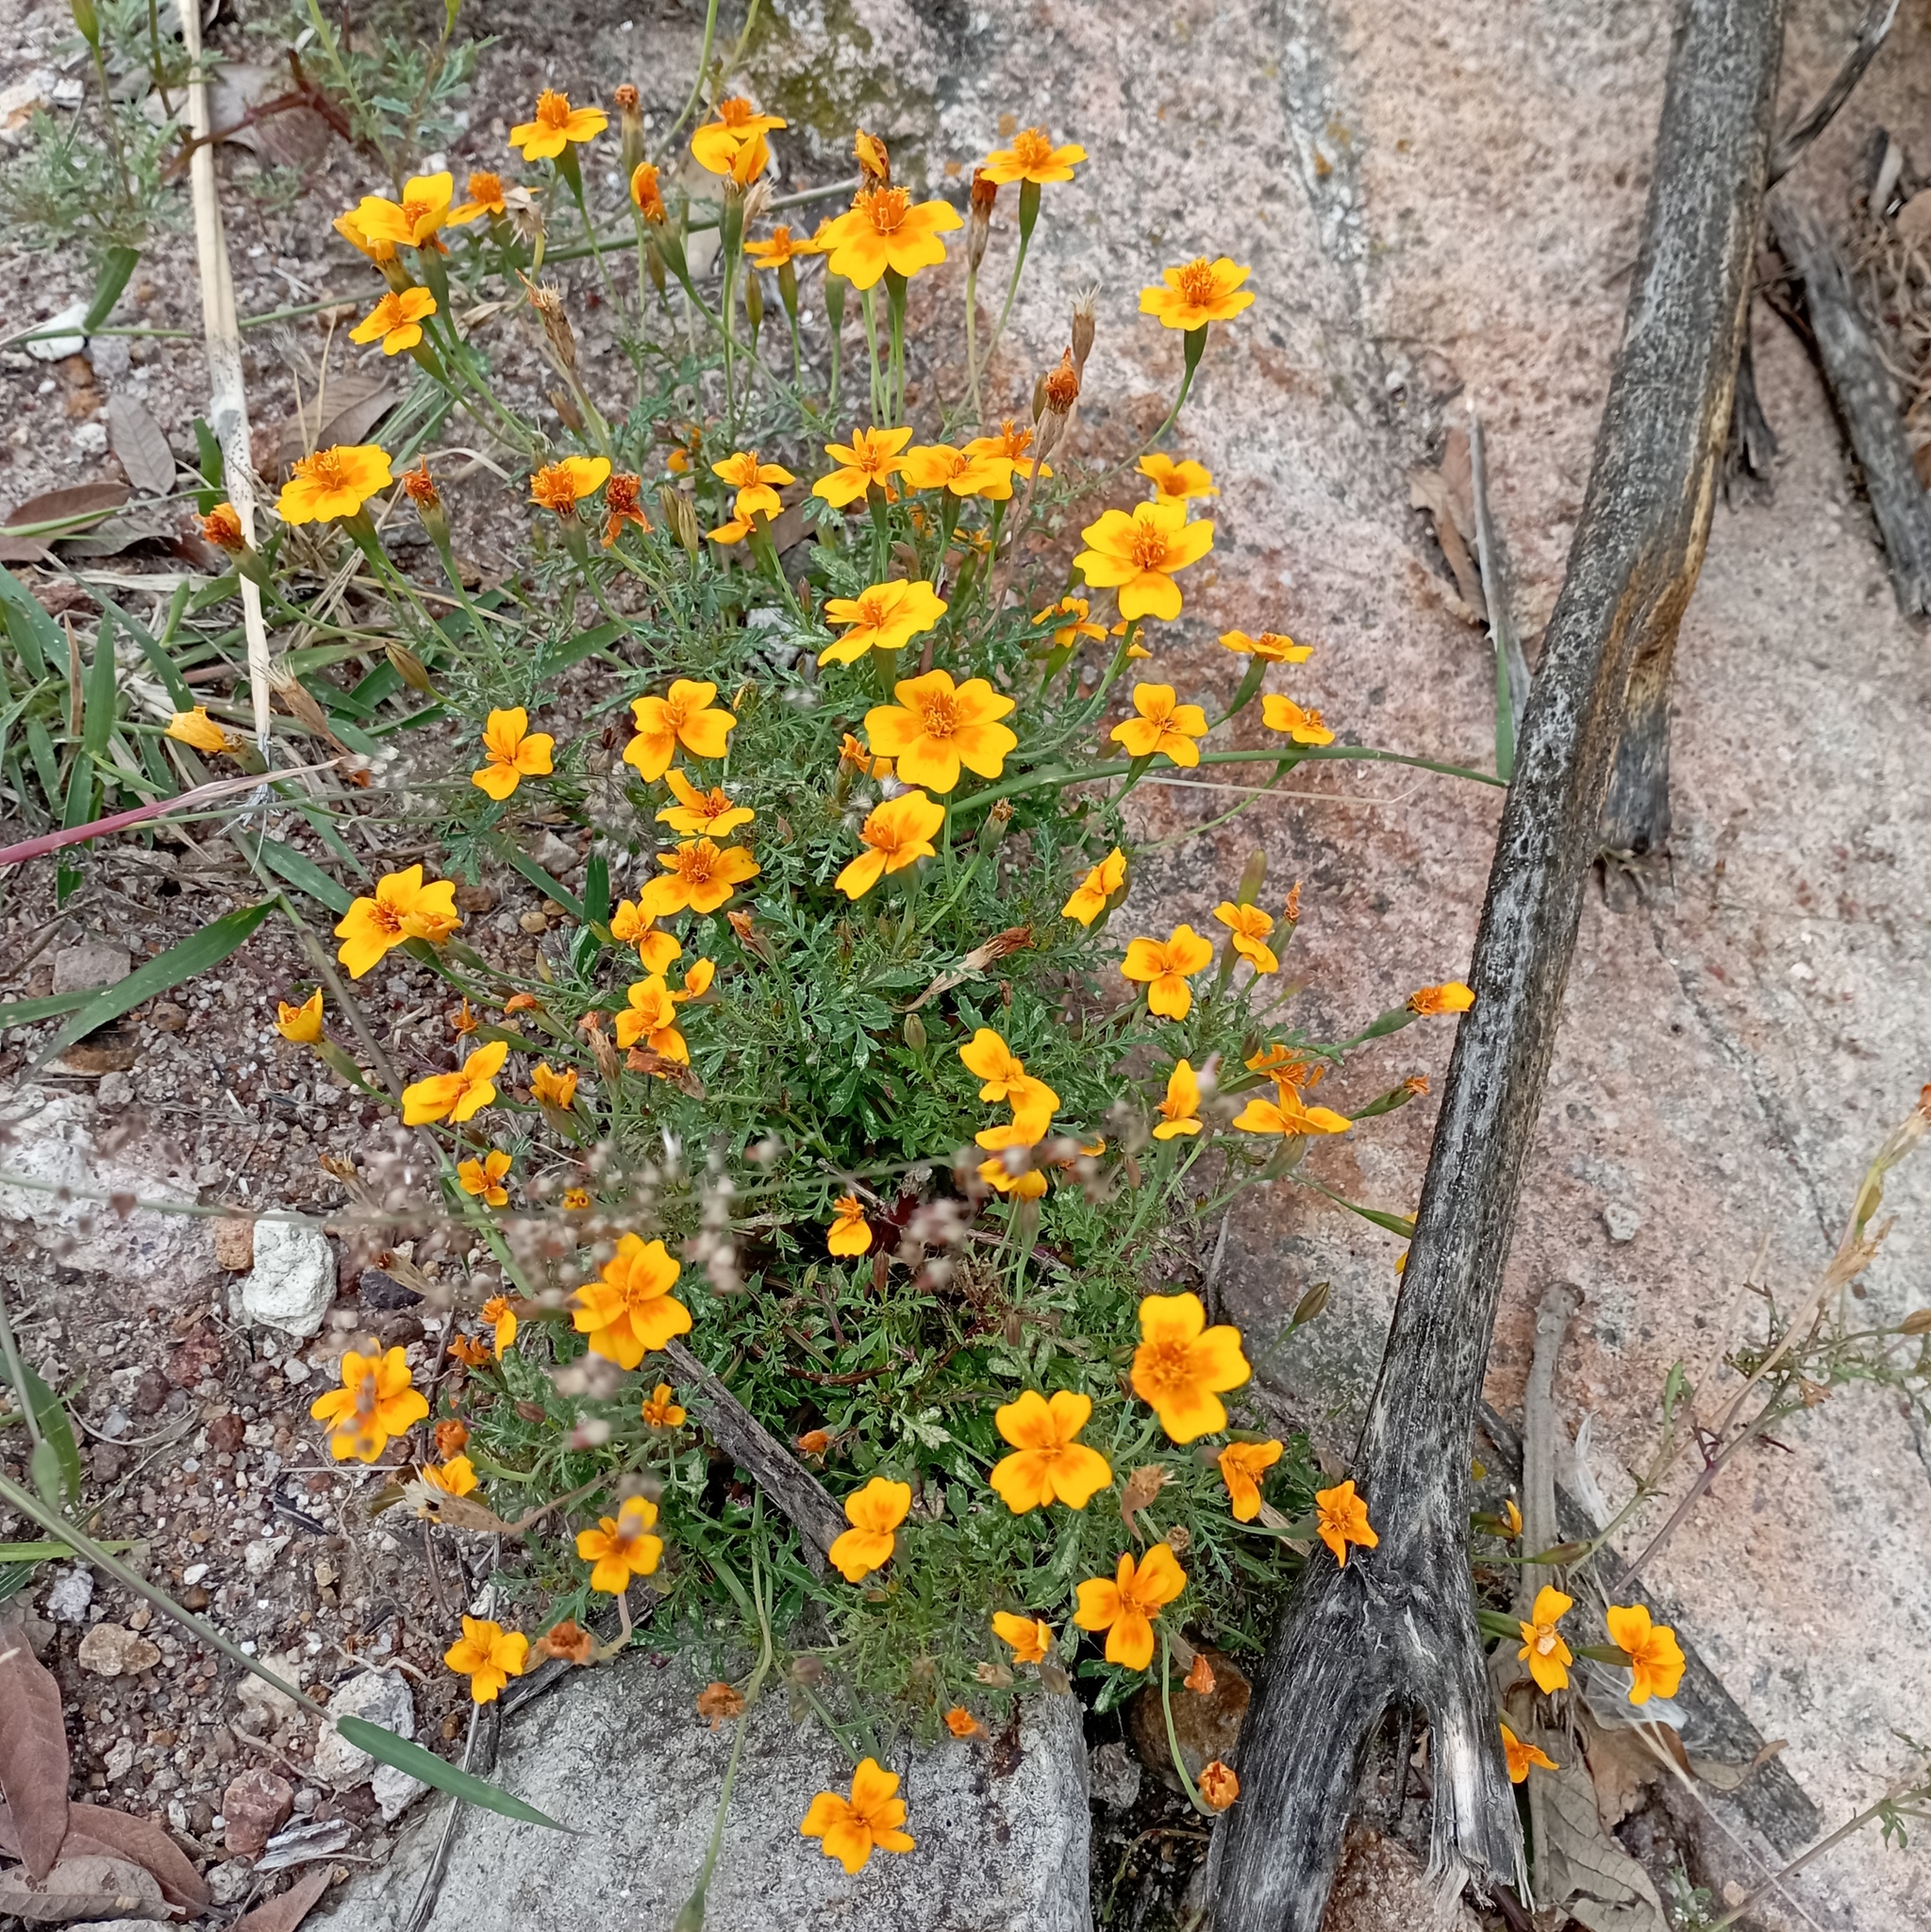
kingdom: Plantae
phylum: Tracheophyta
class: Magnoliopsida
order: Asterales
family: Asteraceae
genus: Tagetes
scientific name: Tagetes lunulata
